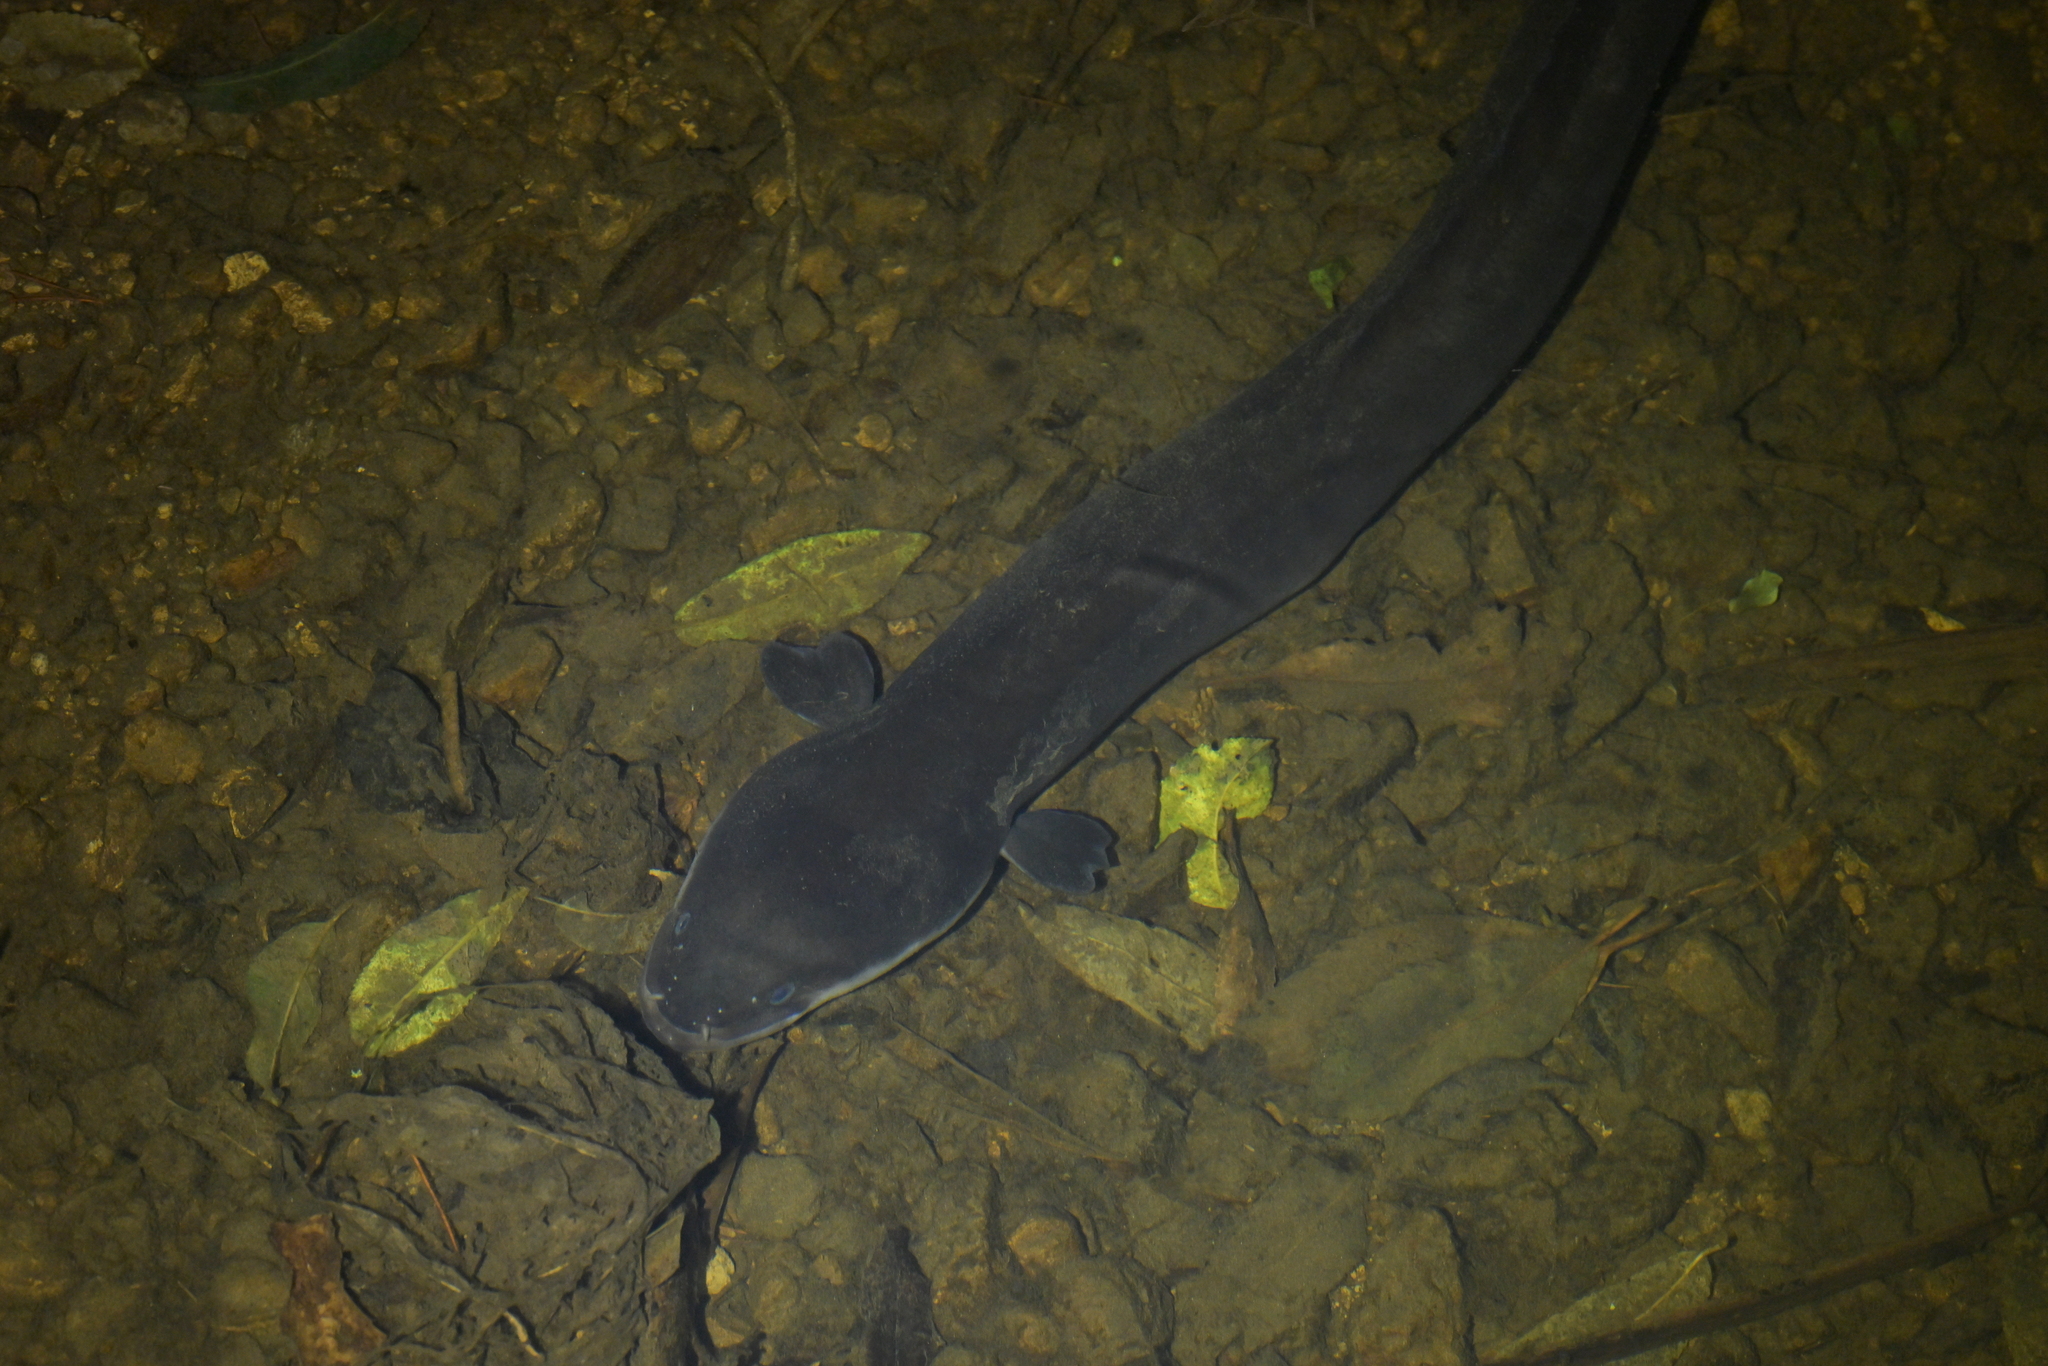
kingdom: Animalia
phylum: Chordata
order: Anguilliformes
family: Anguillidae
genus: Anguilla
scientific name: Anguilla dieffenbachii
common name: New zealand longfin eel
